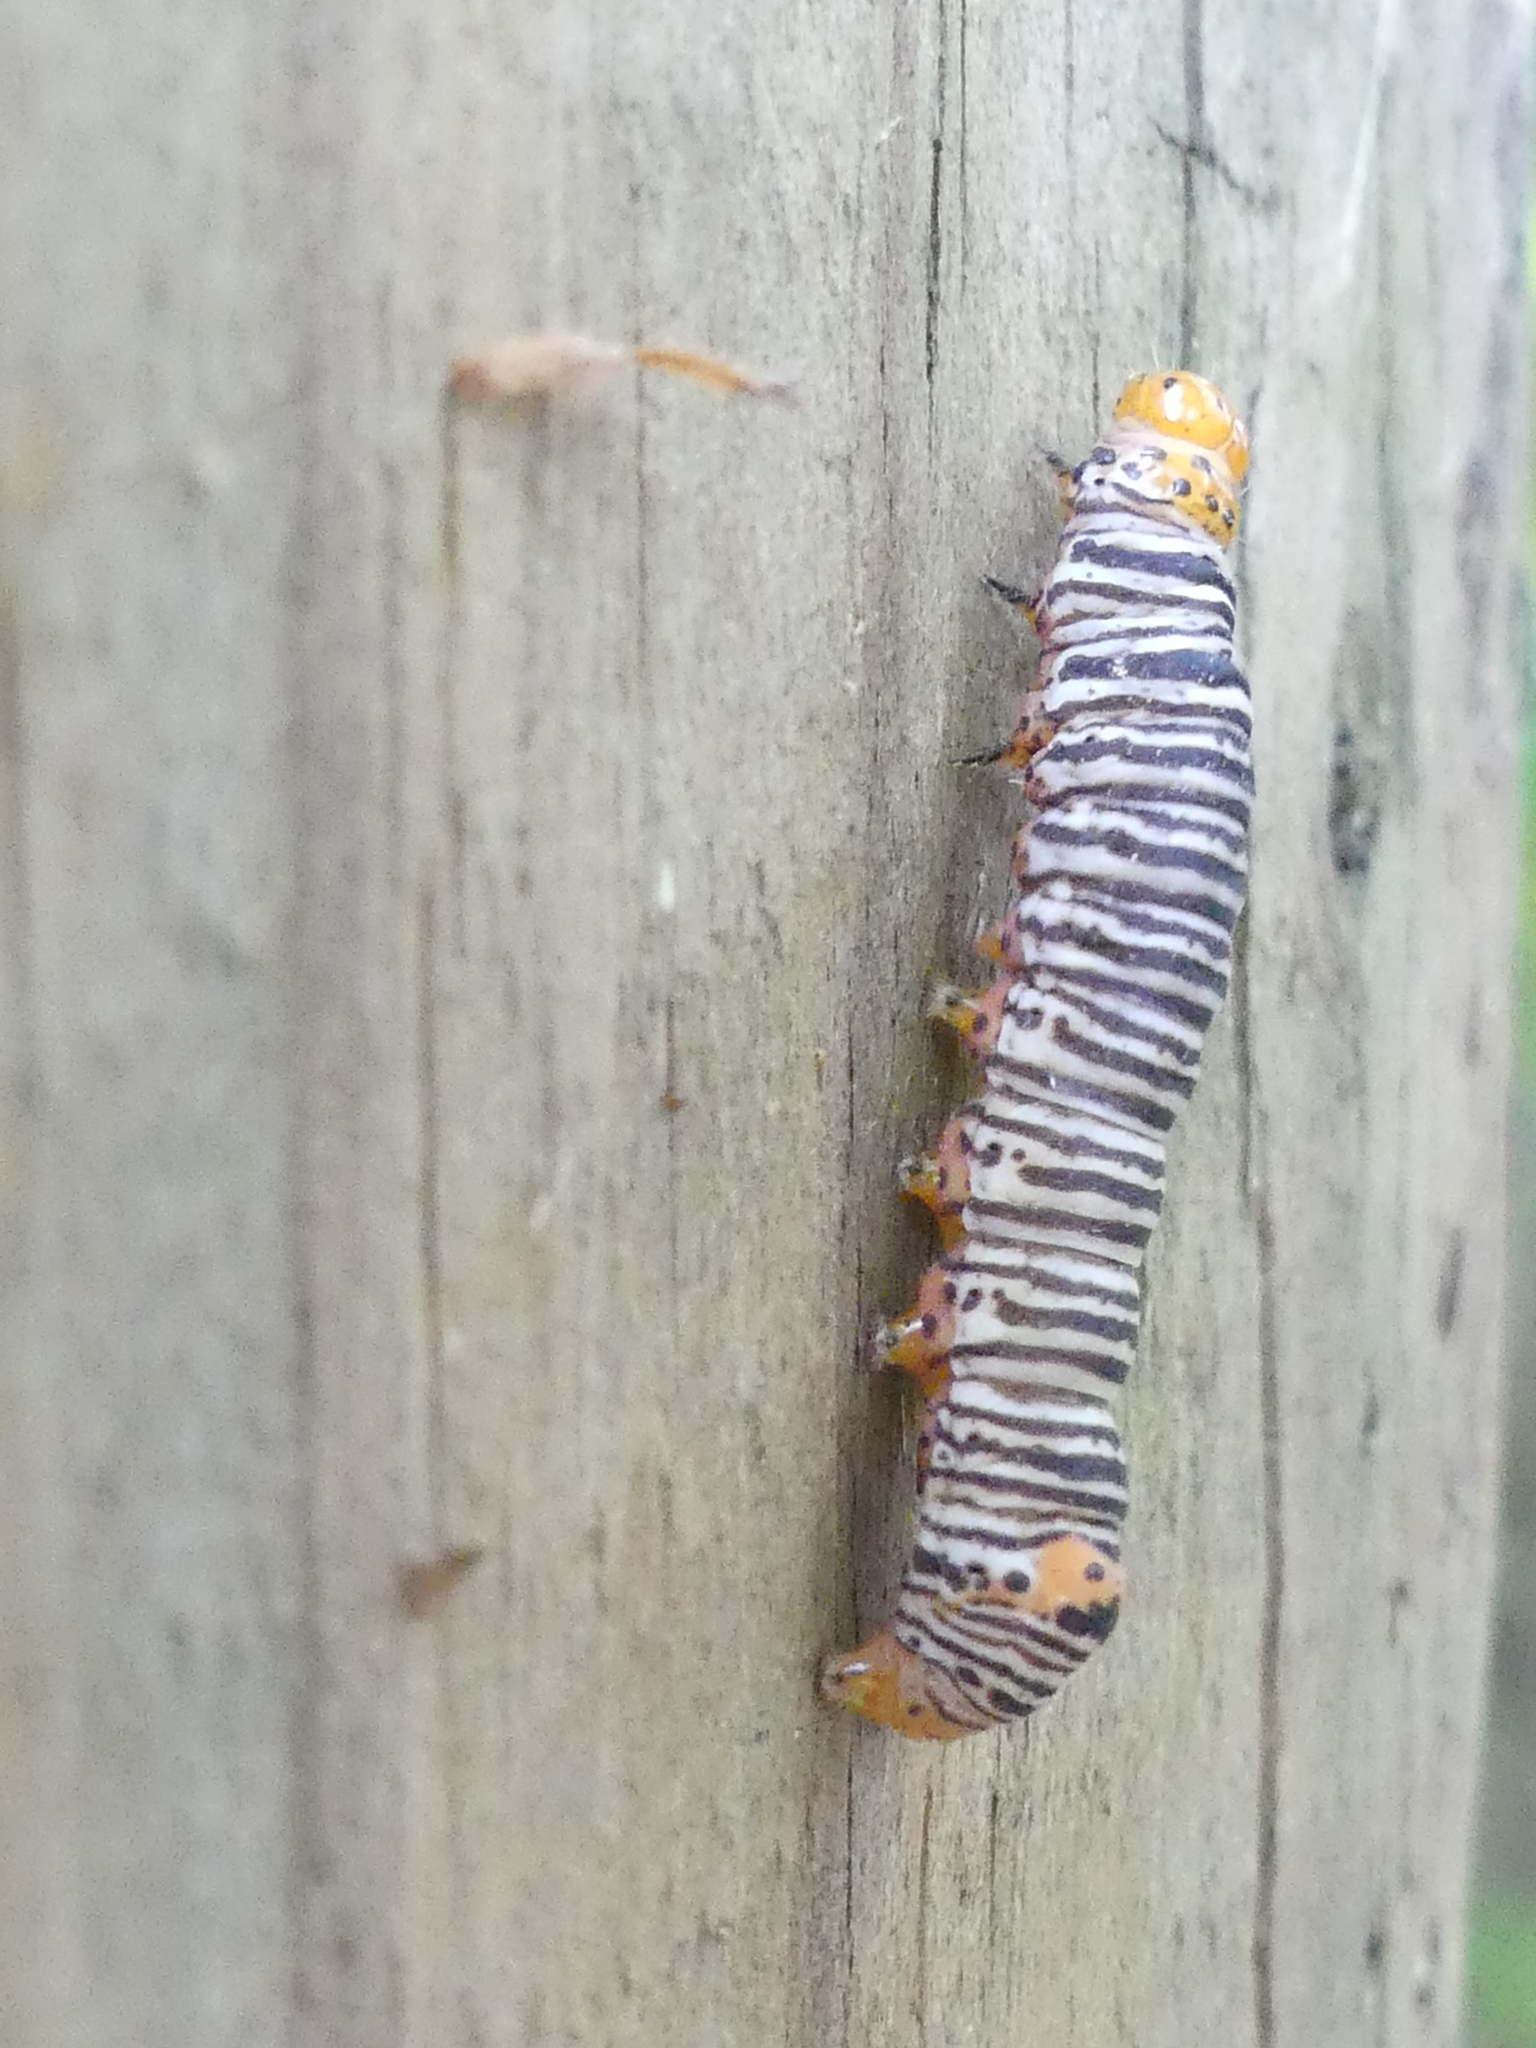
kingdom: Animalia
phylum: Arthropoda
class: Insecta
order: Lepidoptera
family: Noctuidae
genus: Psychomorpha
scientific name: Psychomorpha epimenis
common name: Grapevine epimenis moth
